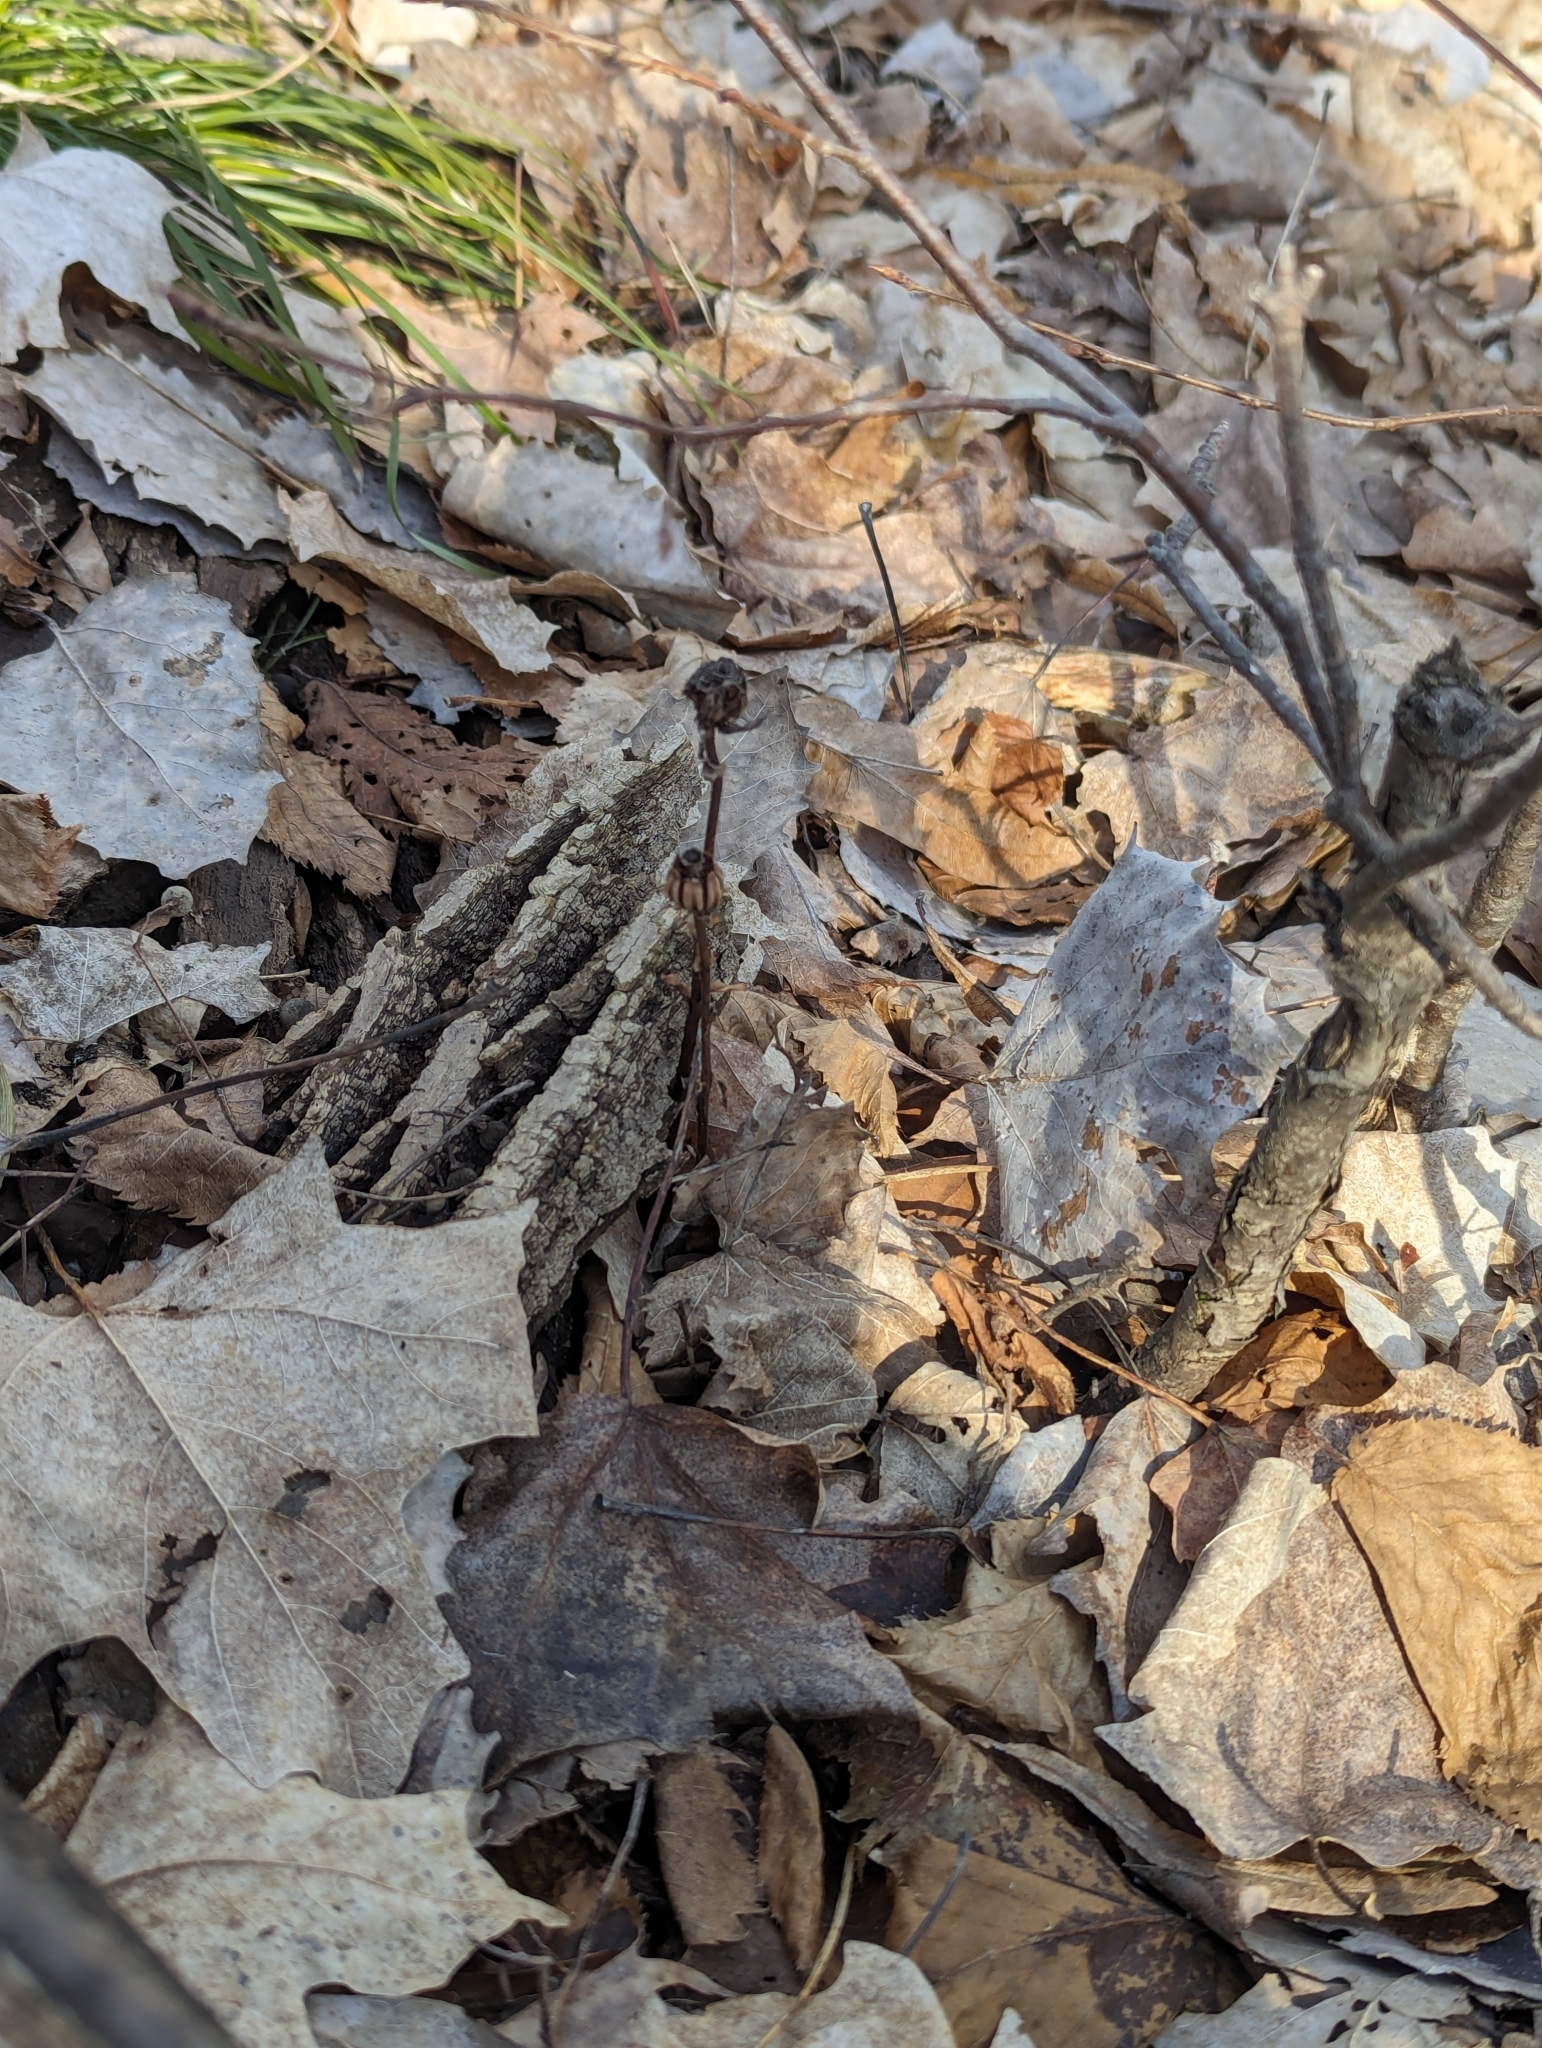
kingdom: Plantae
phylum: Tracheophyta
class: Magnoliopsida
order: Ericales
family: Ericaceae
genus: Monotropa
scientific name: Monotropa uniflora
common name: Convulsion root
